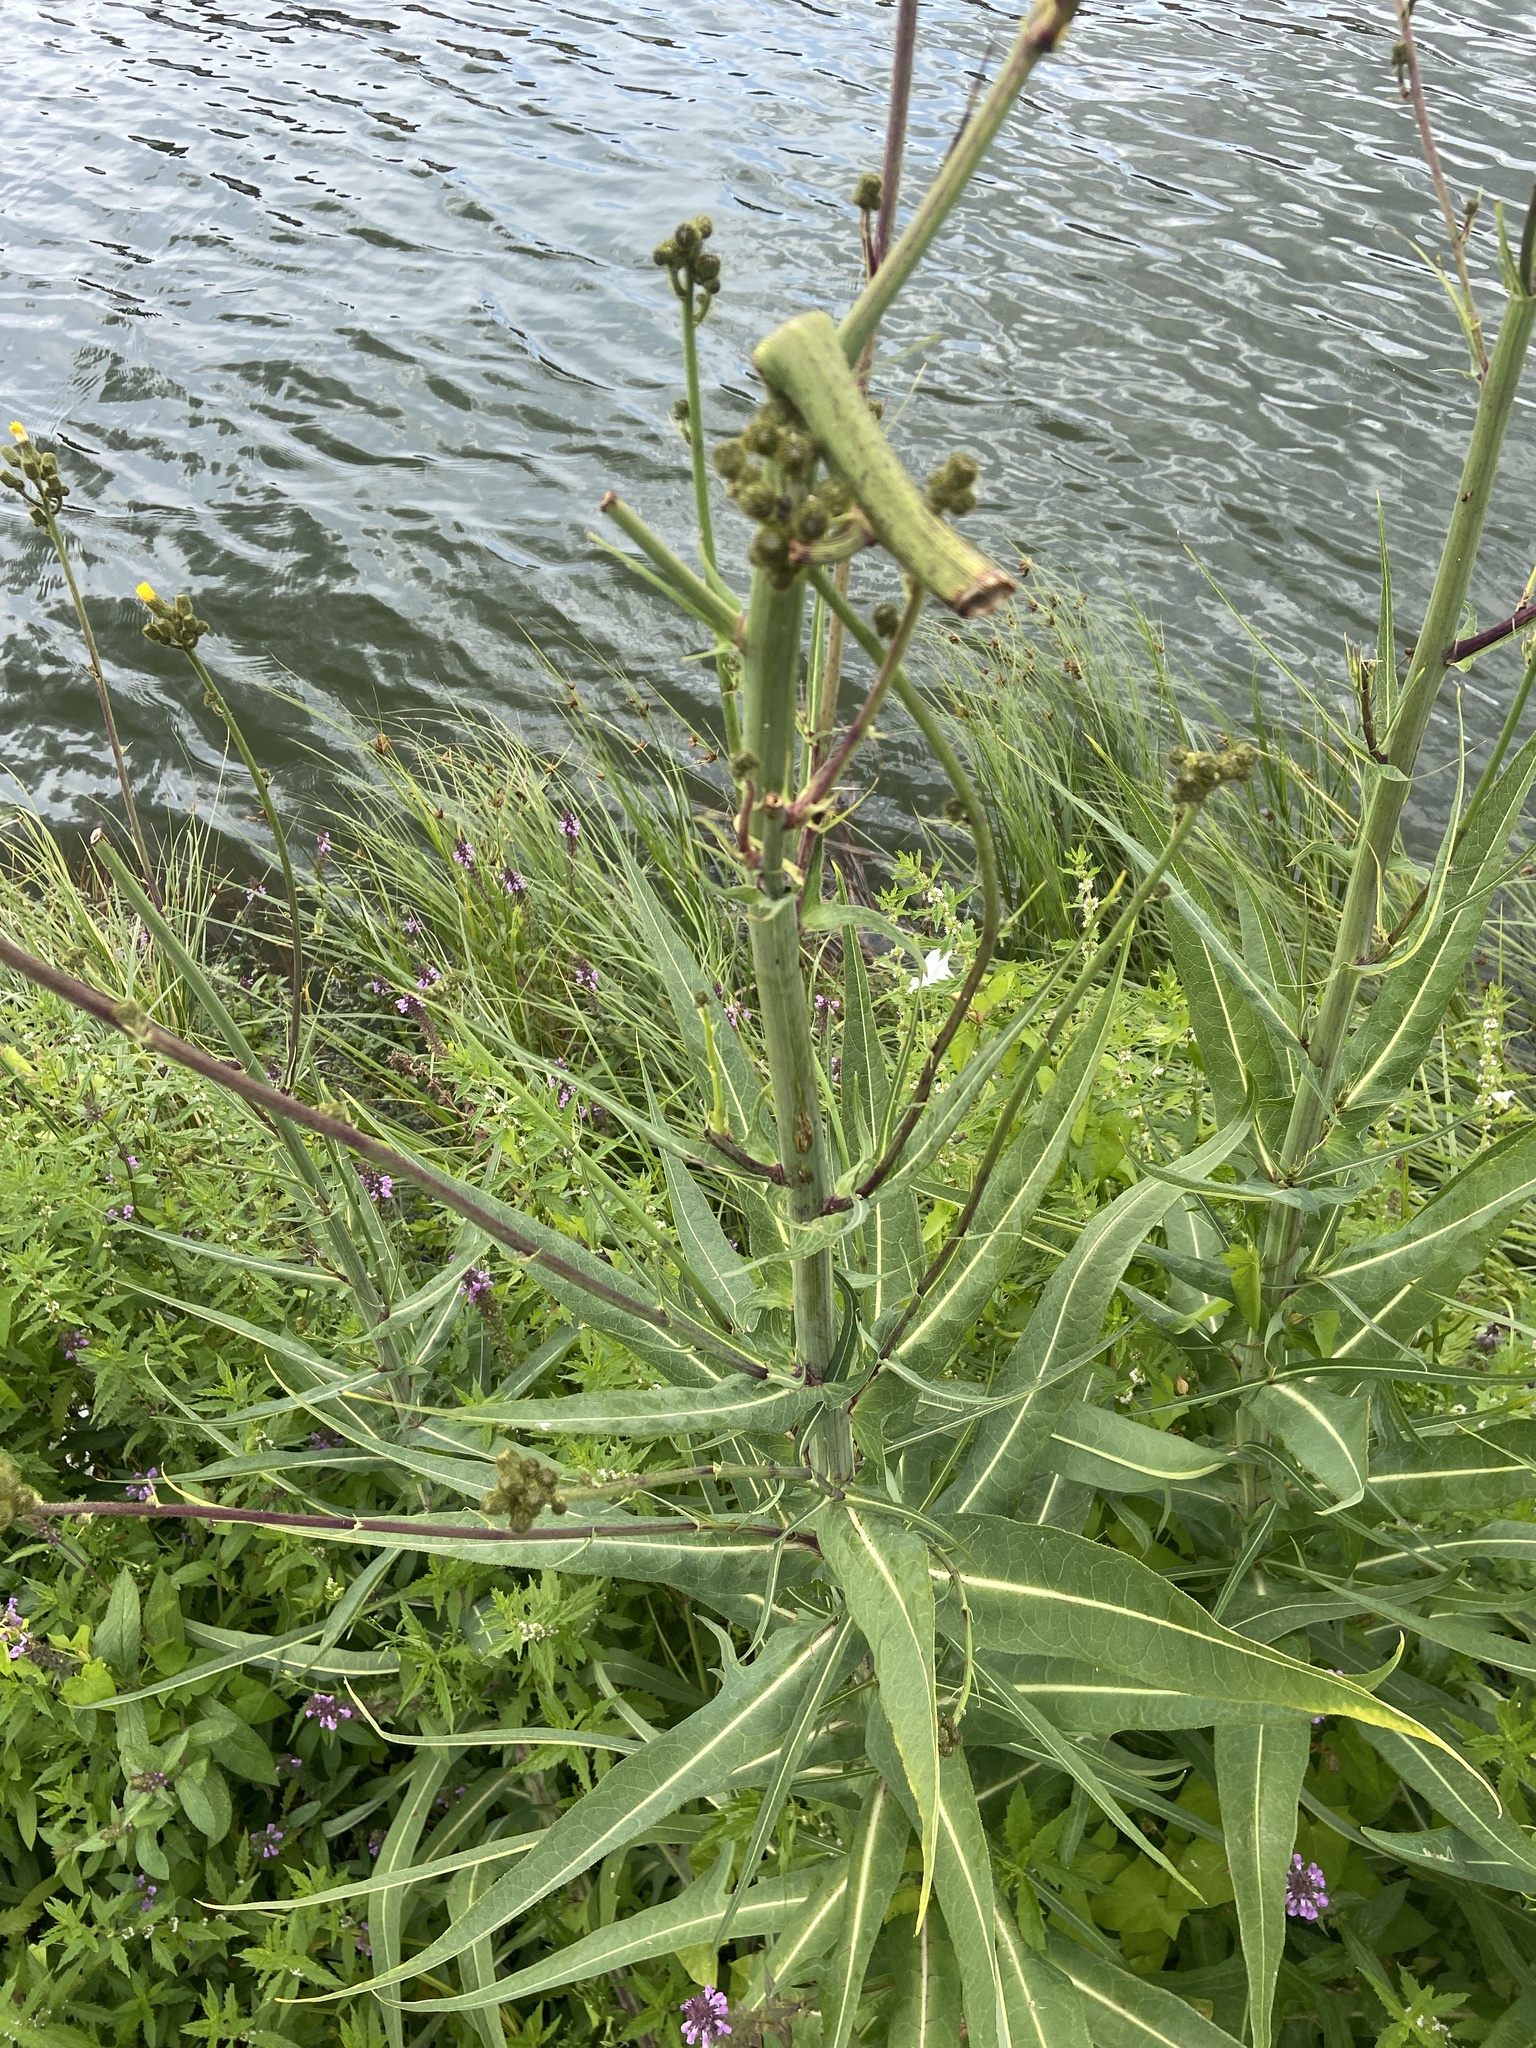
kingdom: Plantae
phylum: Tracheophyta
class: Magnoliopsida
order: Asterales
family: Asteraceae
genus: Sonchus
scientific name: Sonchus palustris
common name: Marsh sow-thistle
